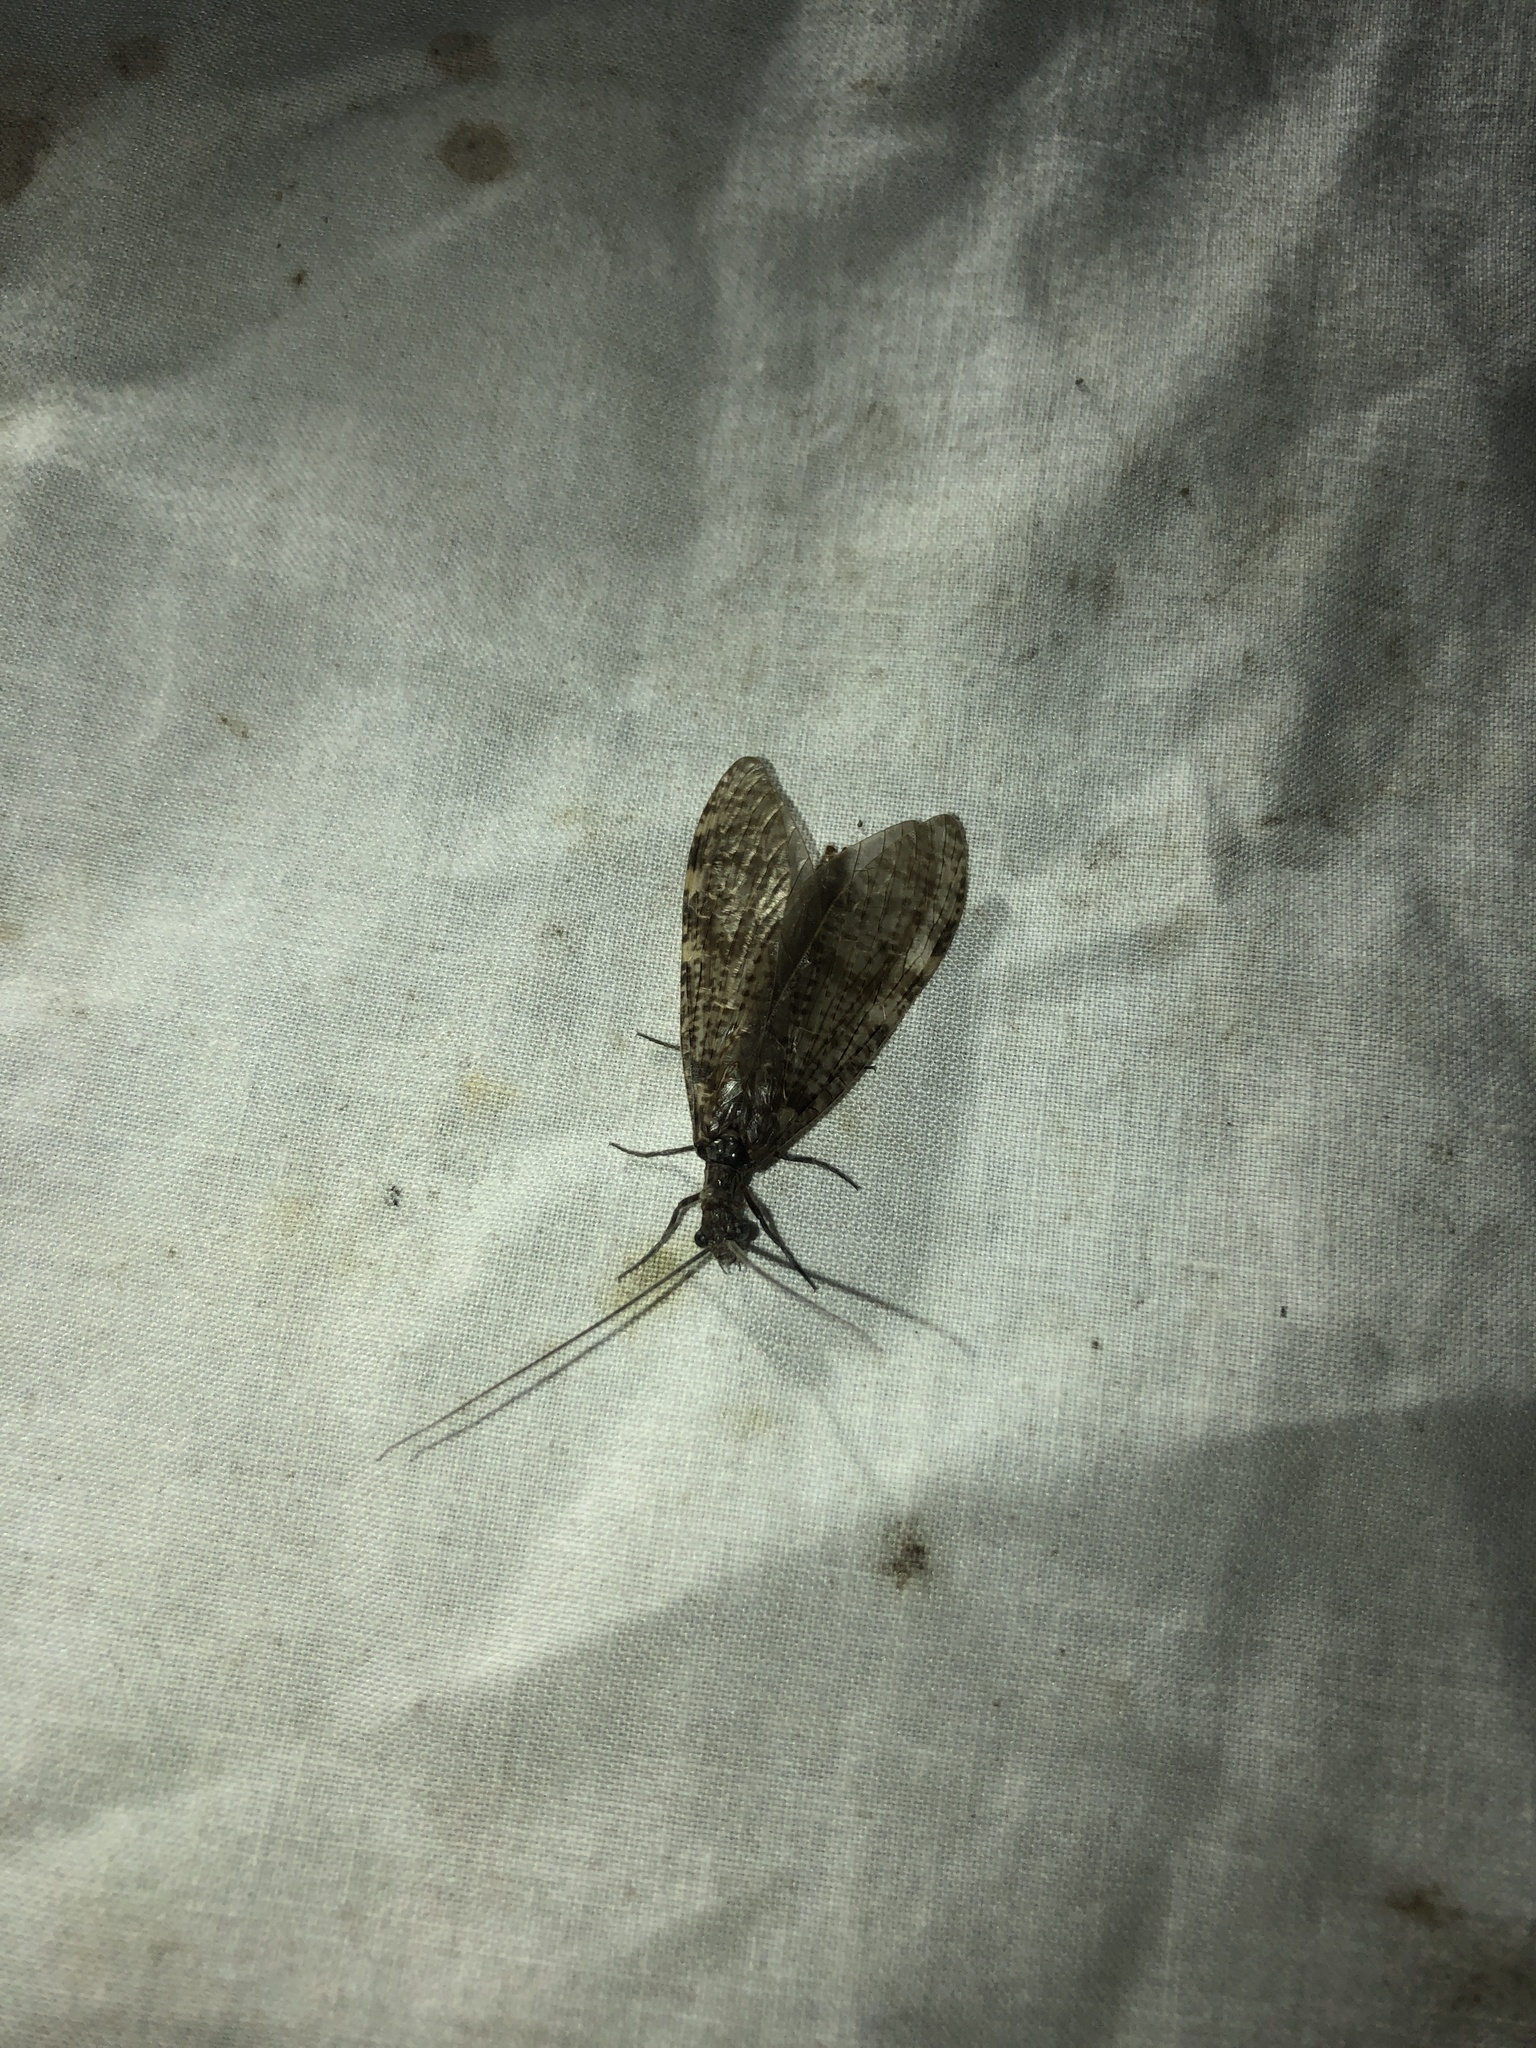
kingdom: Animalia
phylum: Arthropoda
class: Insecta
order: Megaloptera
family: Corydalidae
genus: Archichauliodes
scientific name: Archichauliodes diversus
